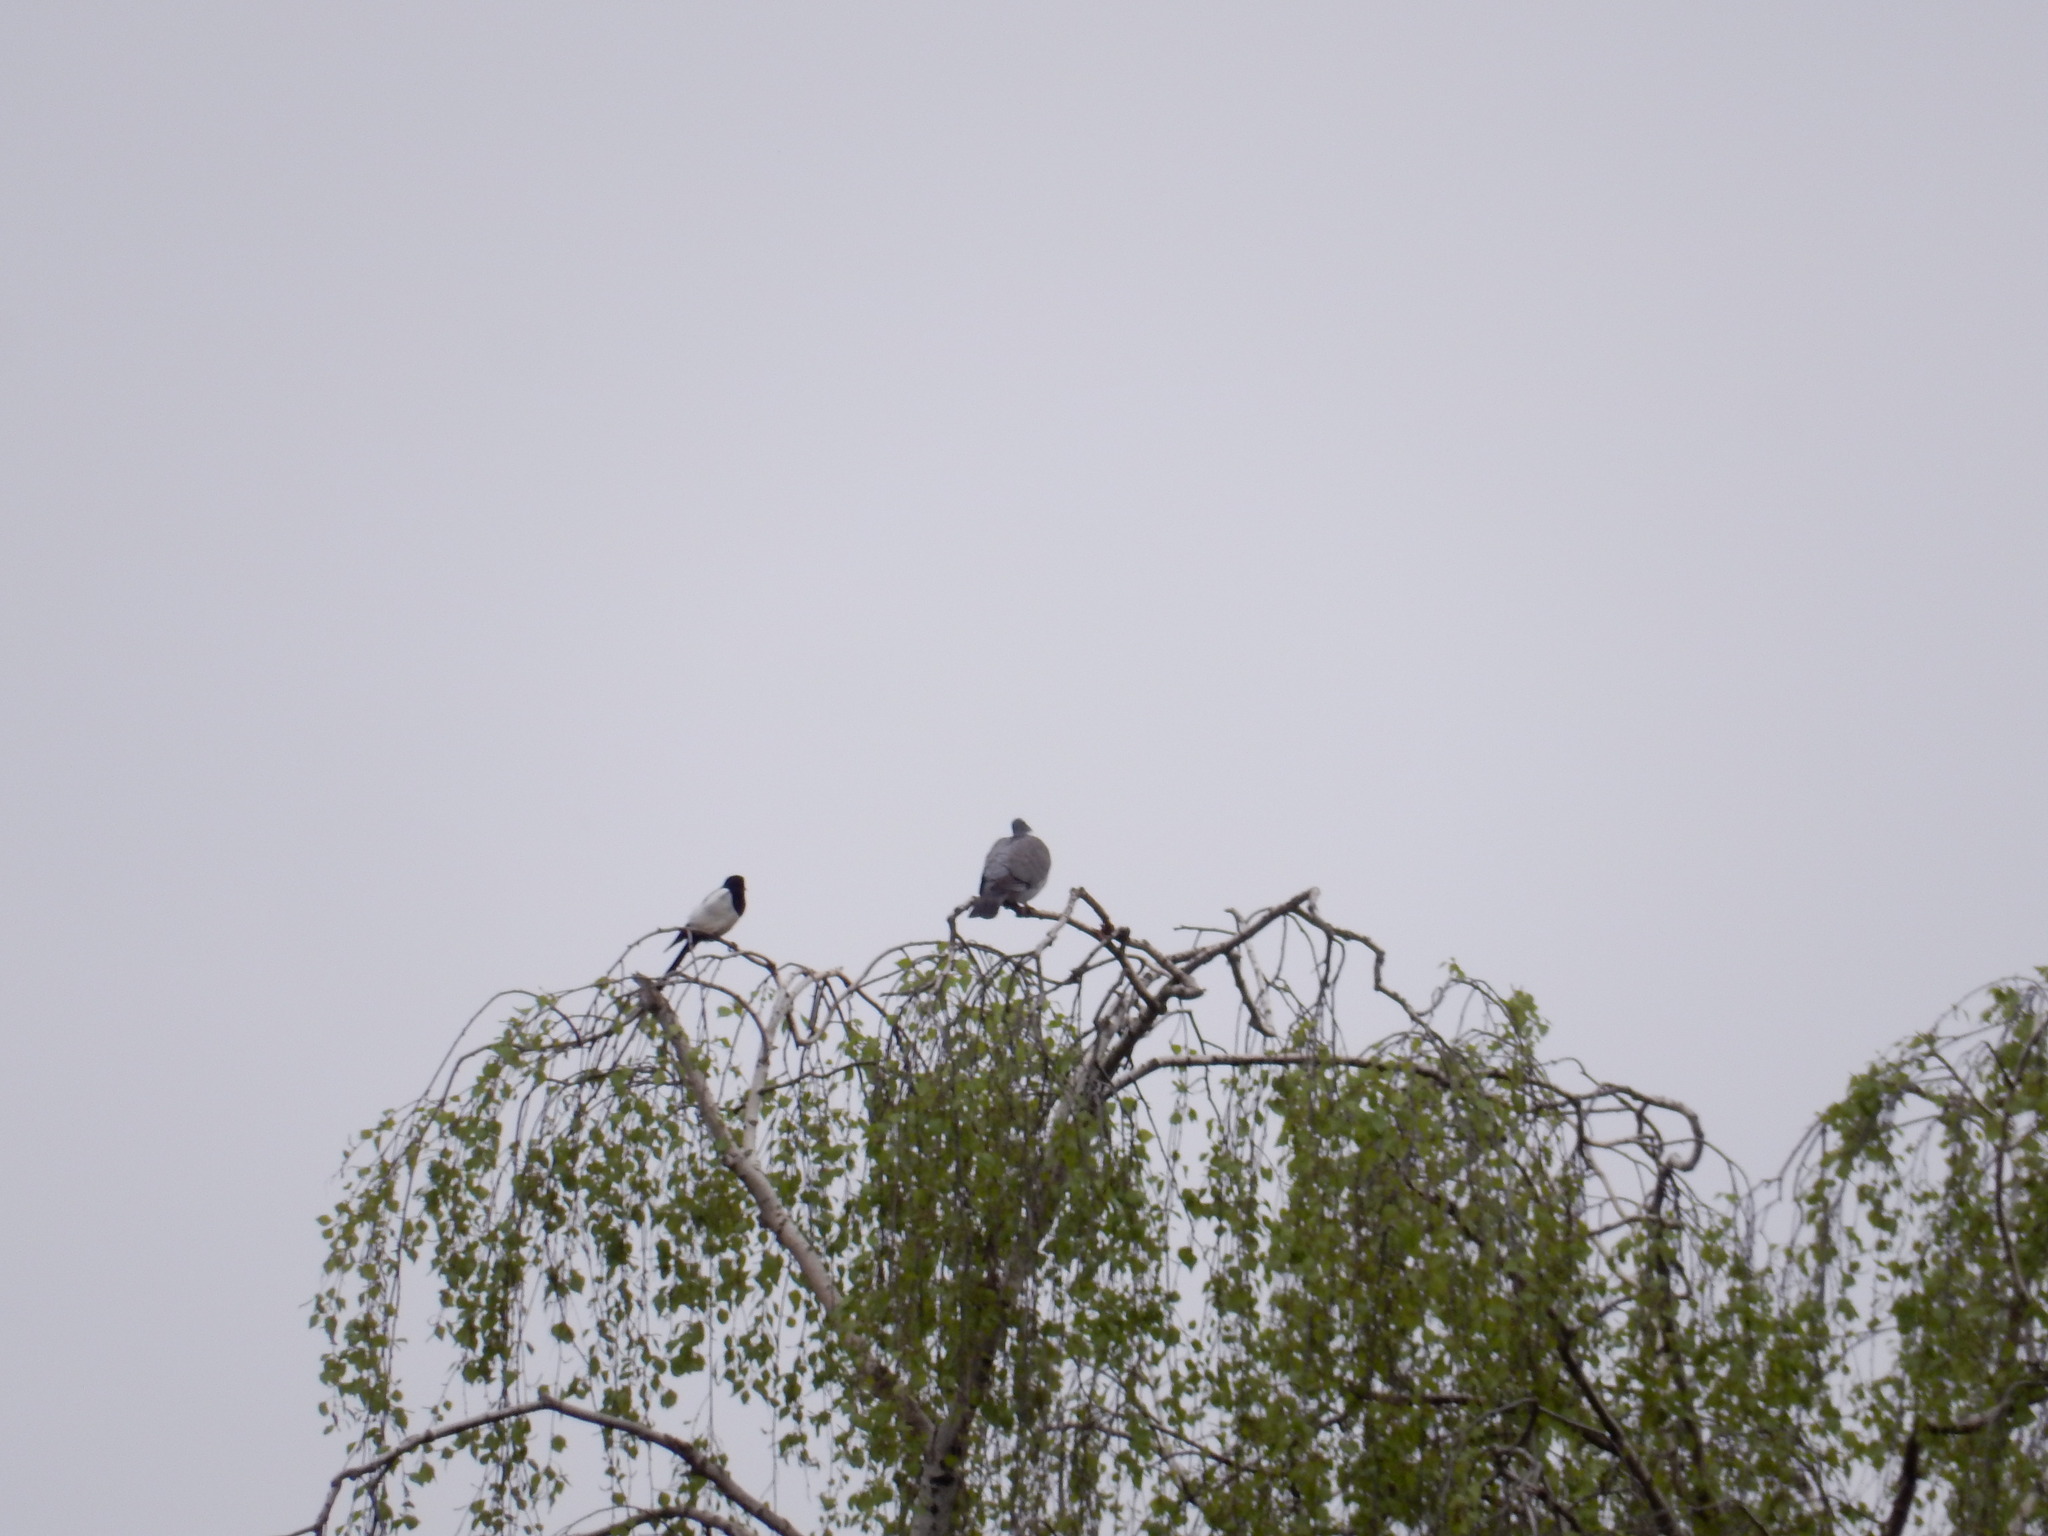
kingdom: Animalia
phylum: Chordata
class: Aves
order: Passeriformes
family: Corvidae
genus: Pica
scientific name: Pica pica
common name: Eurasian magpie
